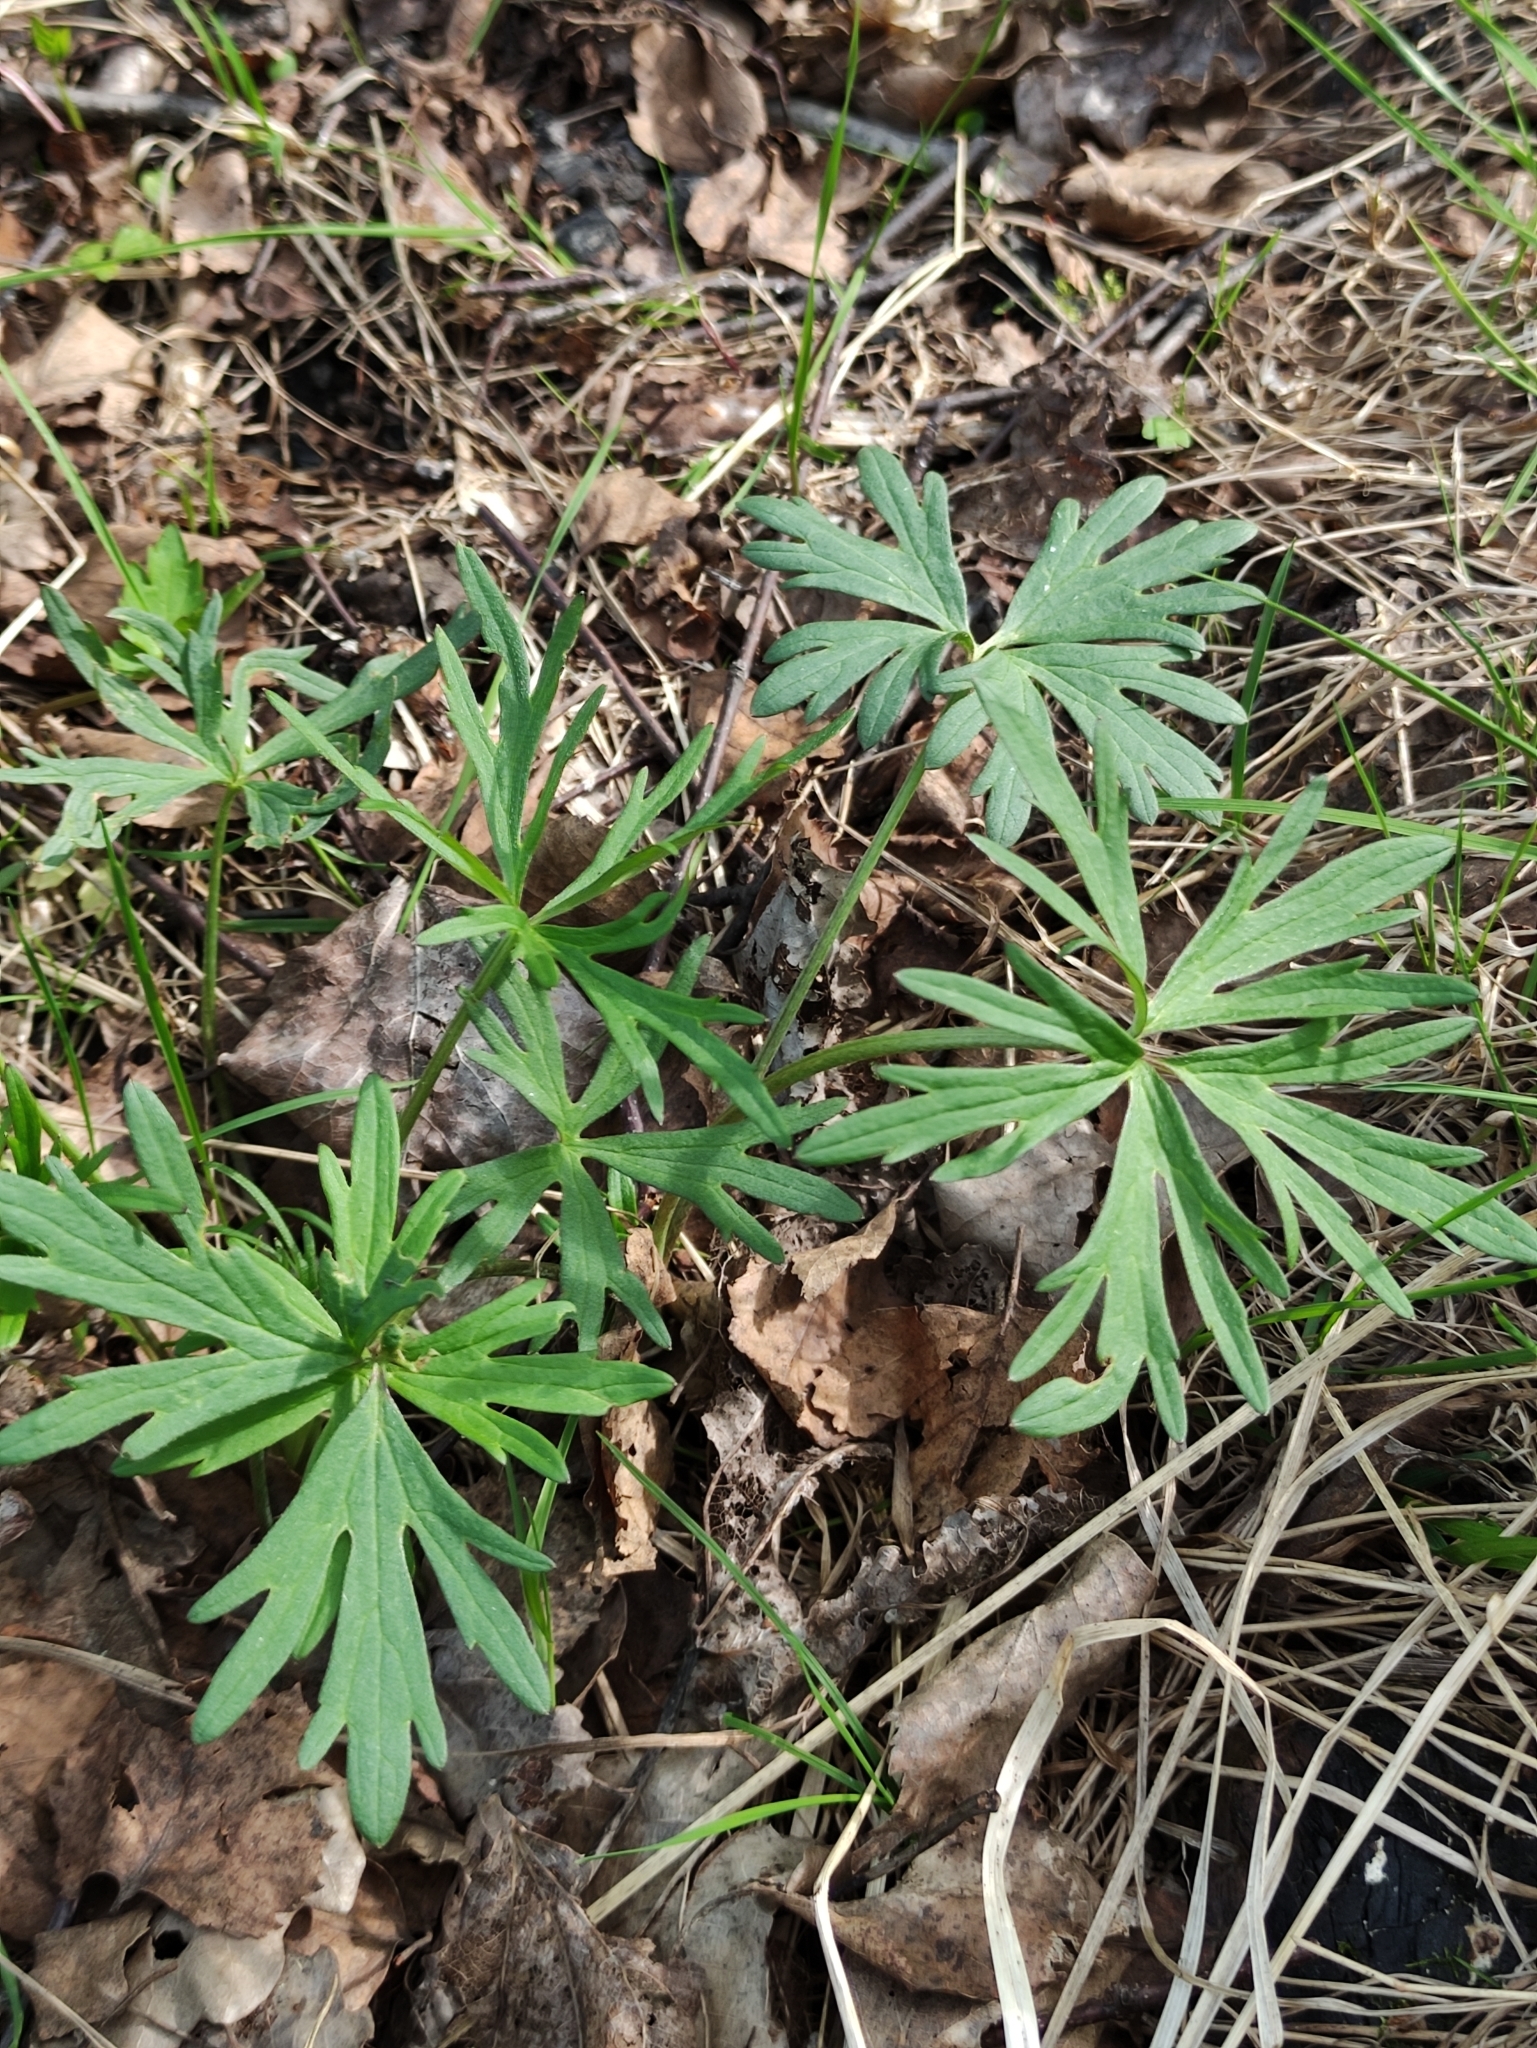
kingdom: Plantae
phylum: Tracheophyta
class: Magnoliopsida
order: Ranunculales
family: Ranunculaceae
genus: Ranunculus
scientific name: Ranunculus acris
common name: Meadow buttercup
